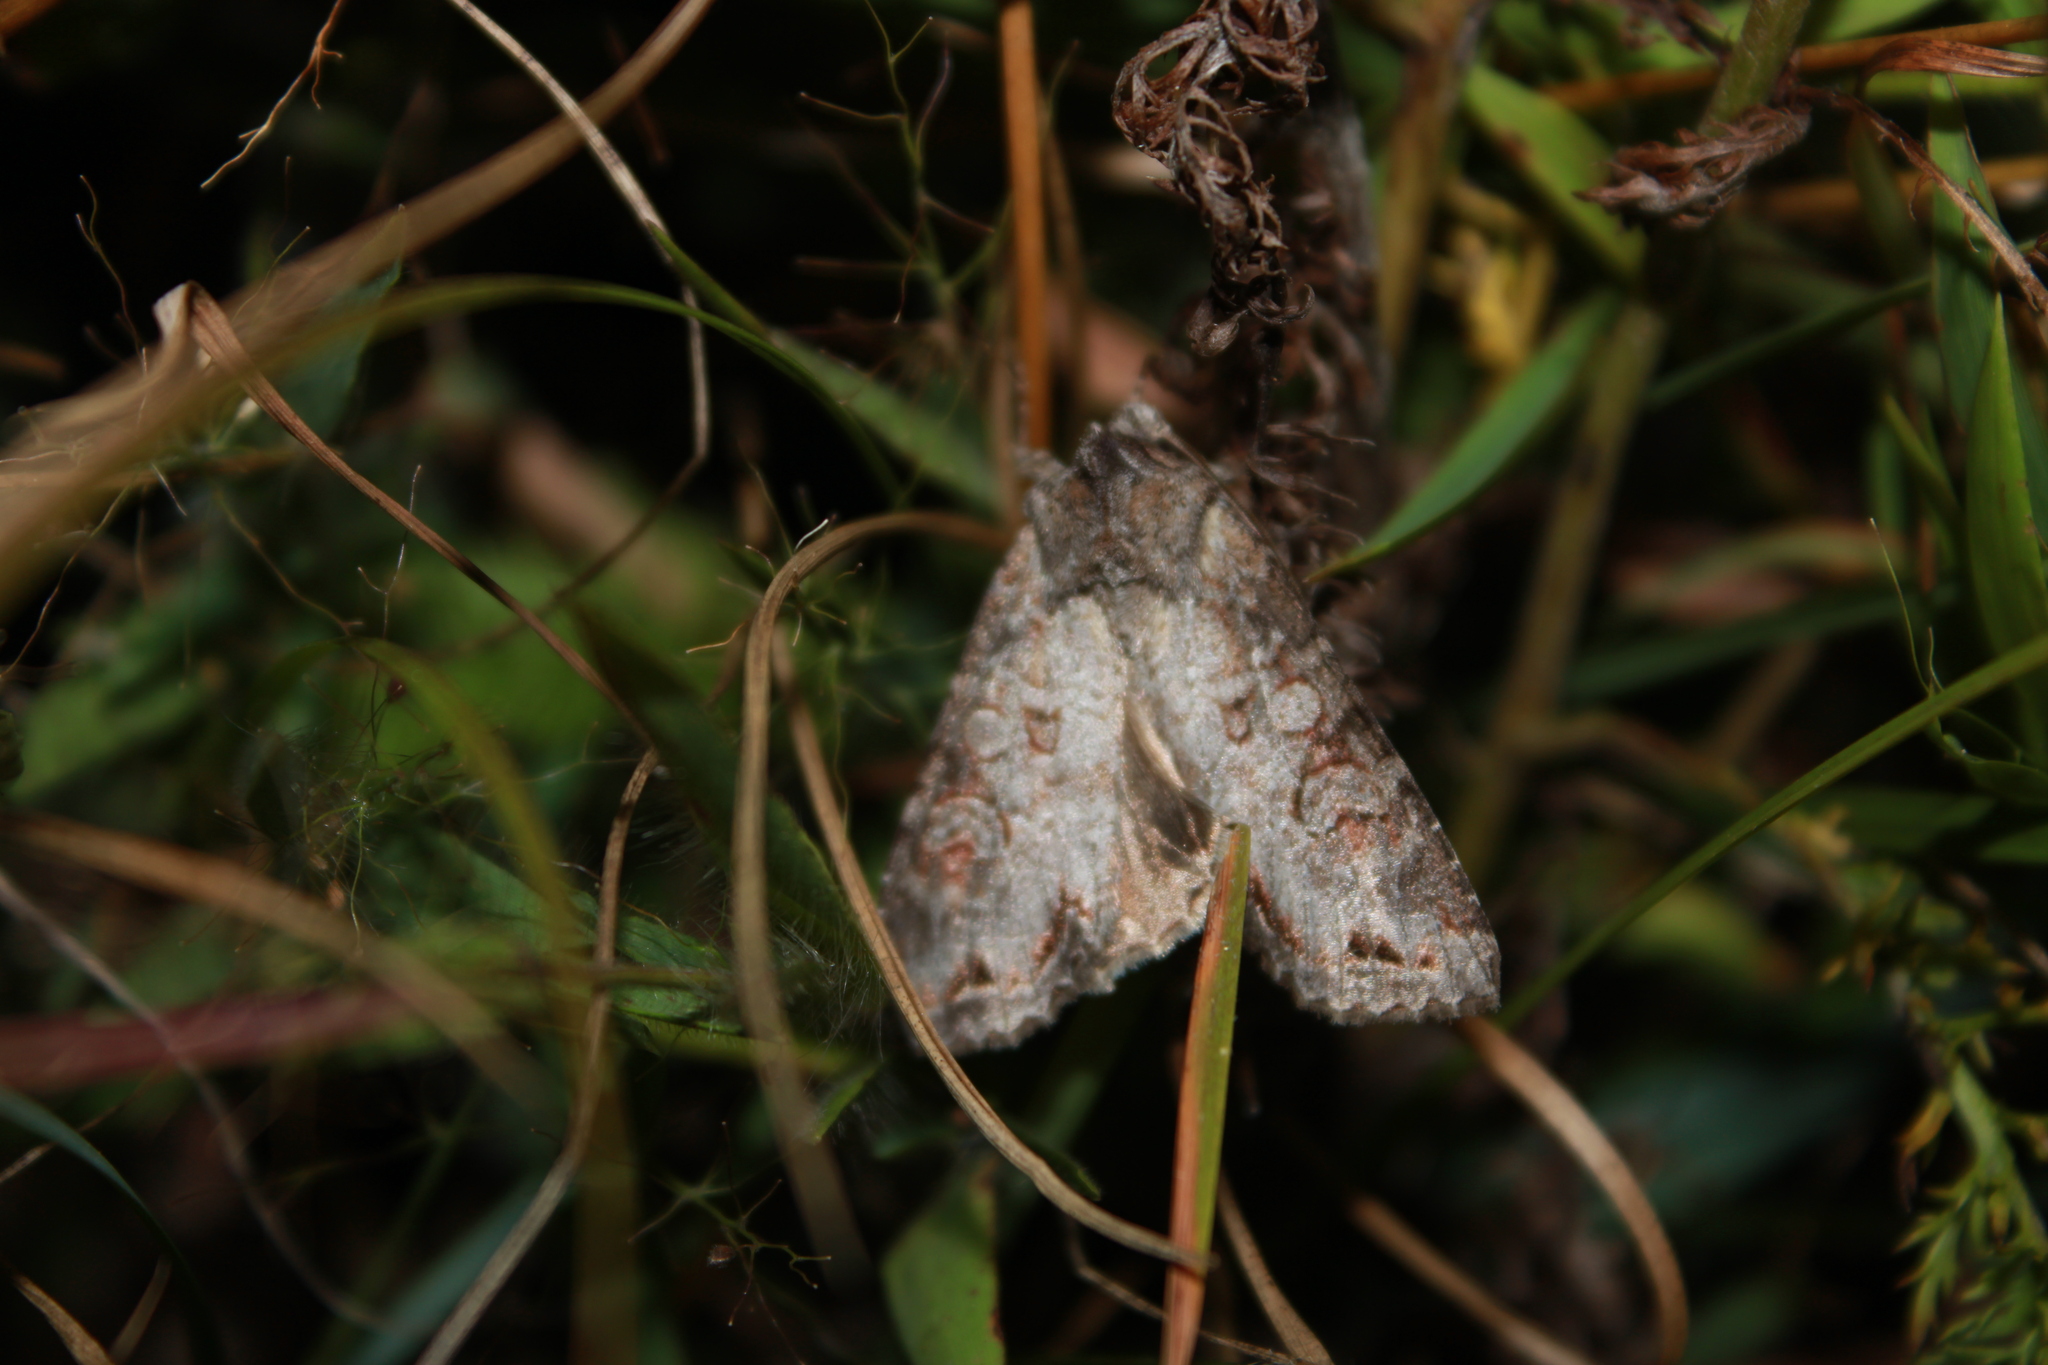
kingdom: Animalia
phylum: Arthropoda
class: Insecta
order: Lepidoptera
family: Noctuidae
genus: Polia
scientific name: Polia purpurissata
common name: Purple arches moth
